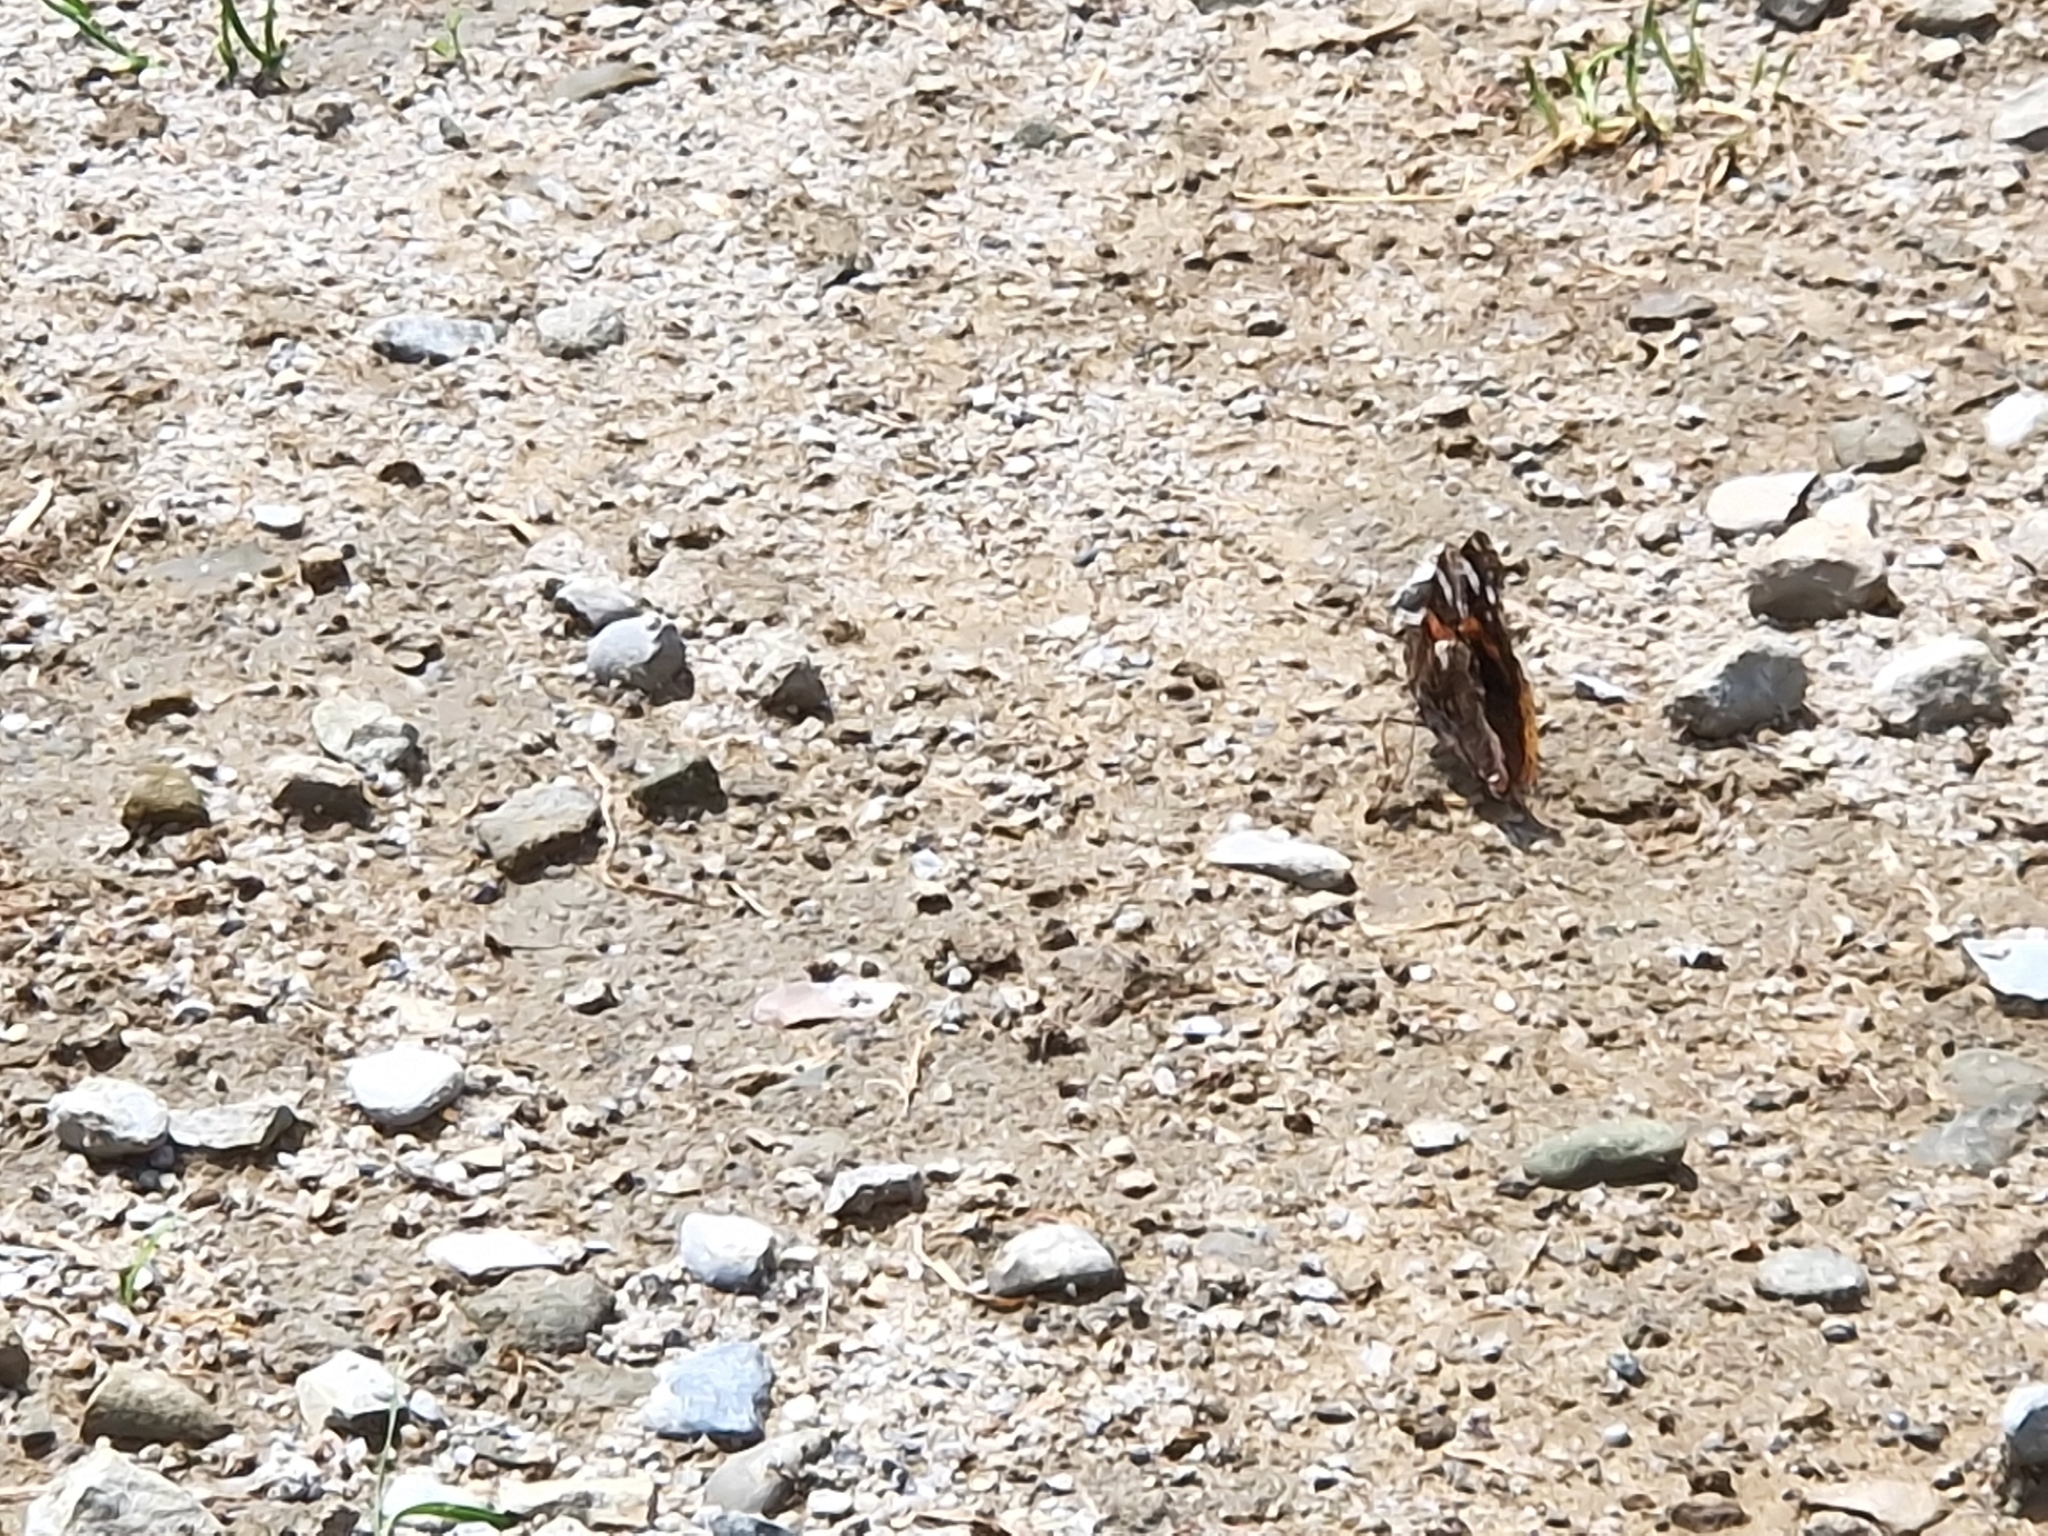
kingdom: Animalia
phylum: Arthropoda
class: Insecta
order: Lepidoptera
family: Nymphalidae
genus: Vanessa
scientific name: Vanessa atalanta
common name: Red admiral
